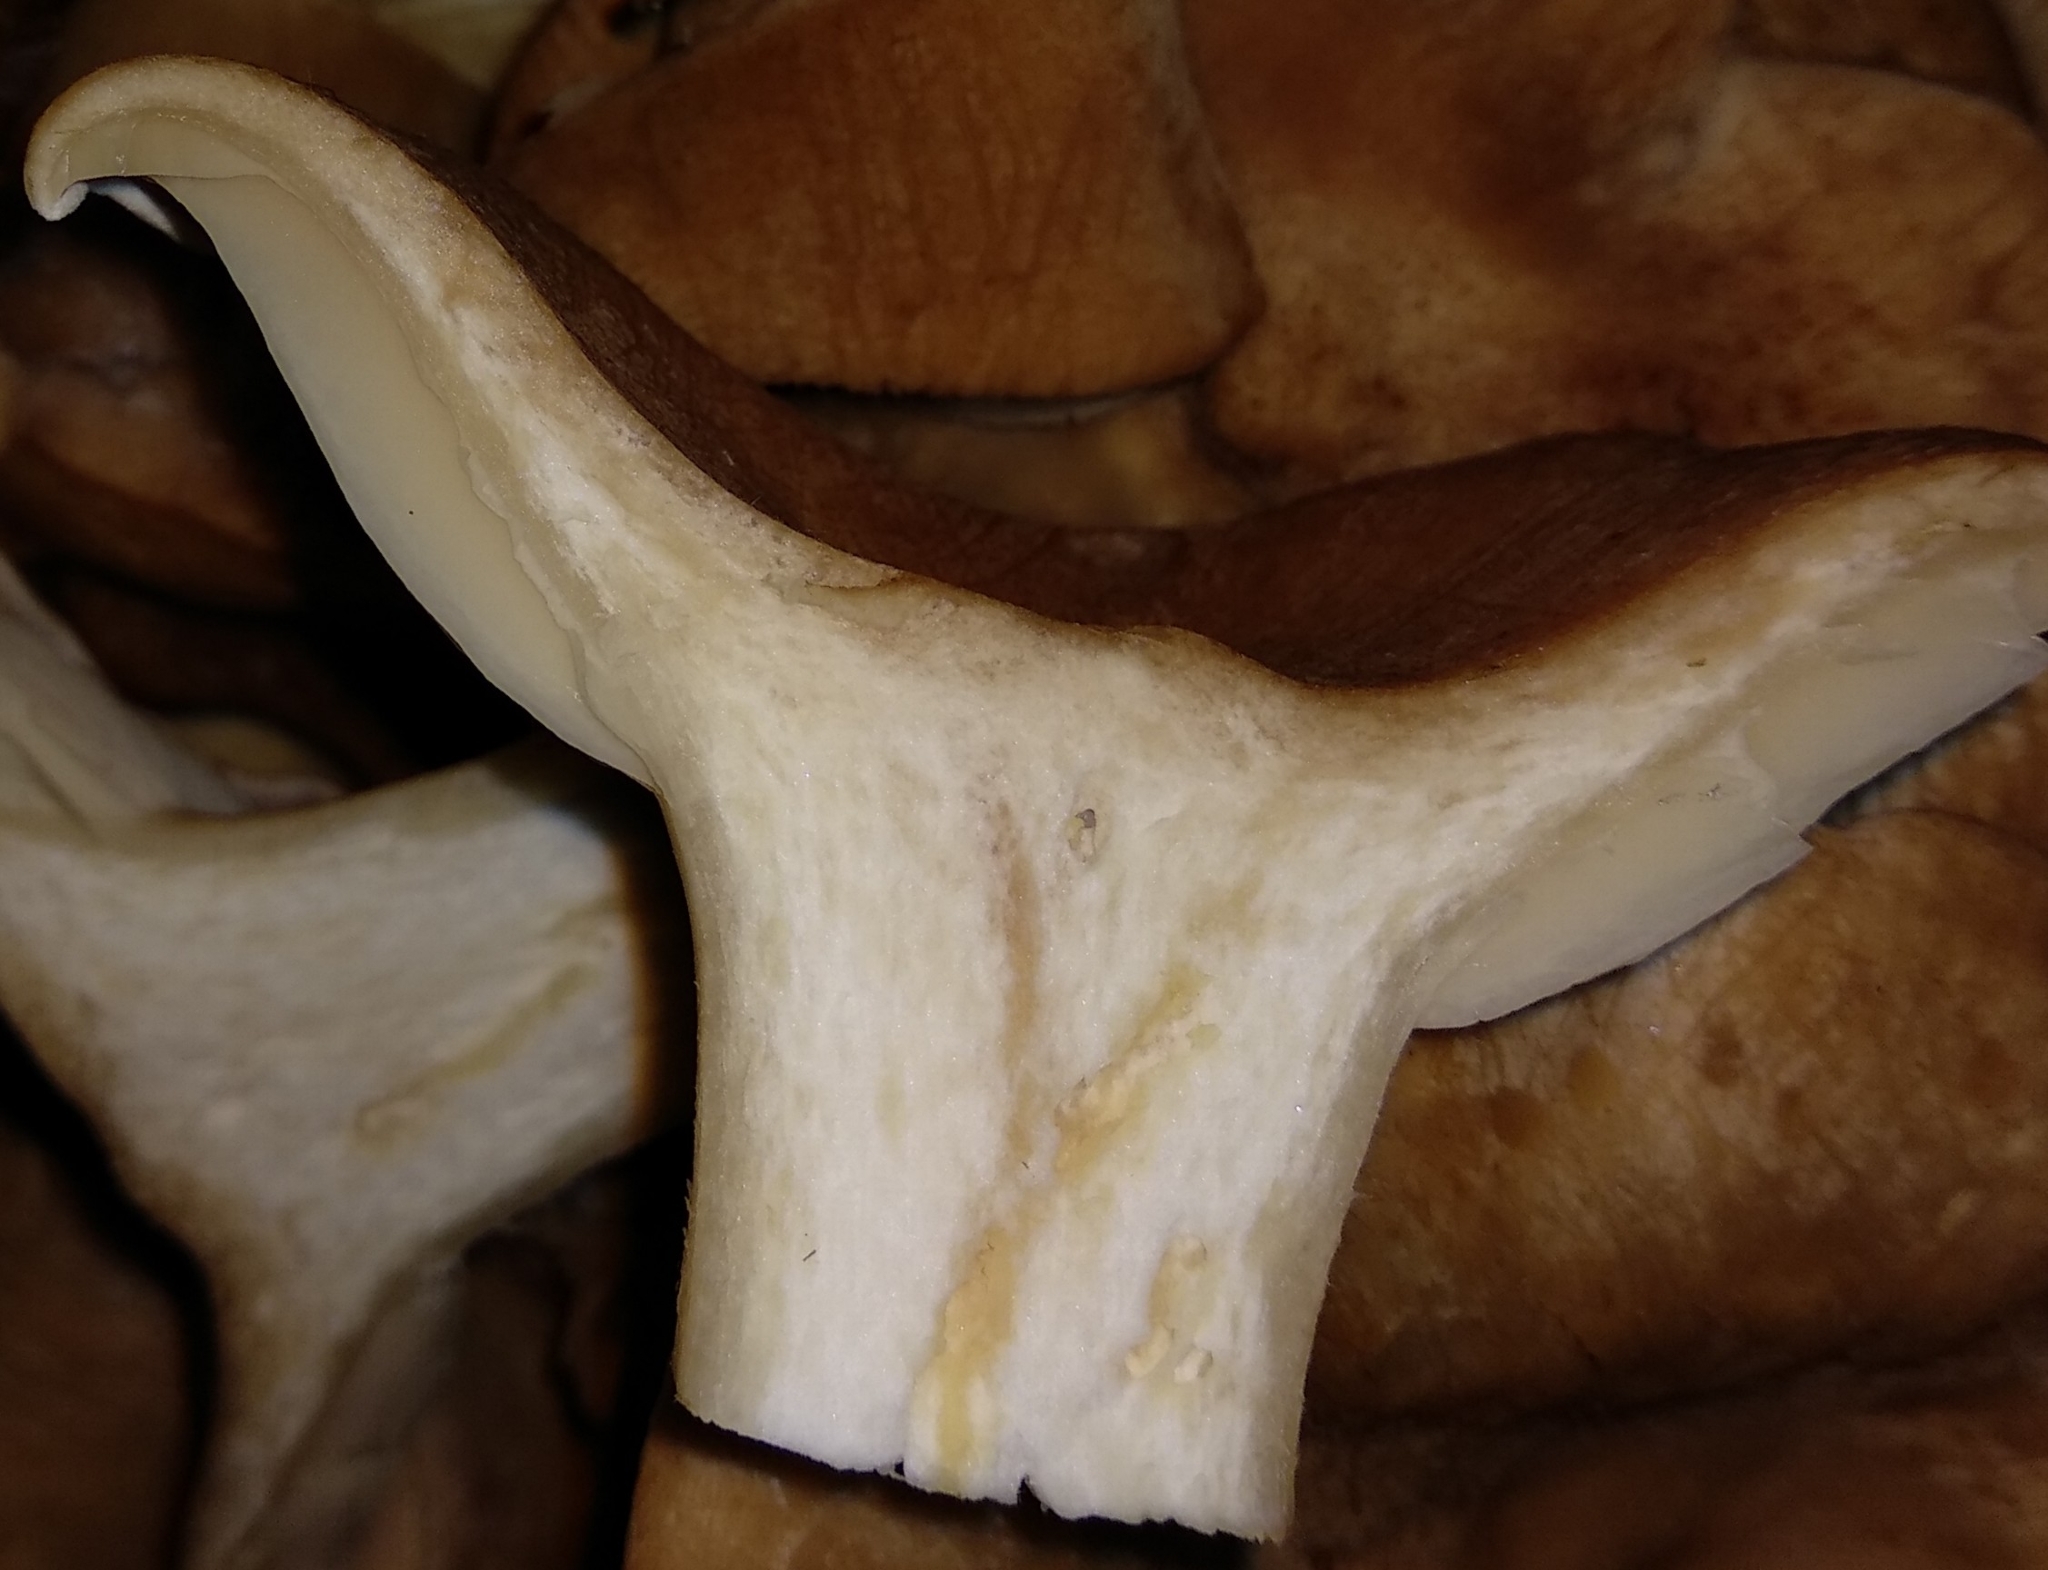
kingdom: Fungi
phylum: Basidiomycota
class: Agaricomycetes
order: Agaricales
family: Tricholomataceae
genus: Infundibulicybe
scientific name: Infundibulicybe geotropa
